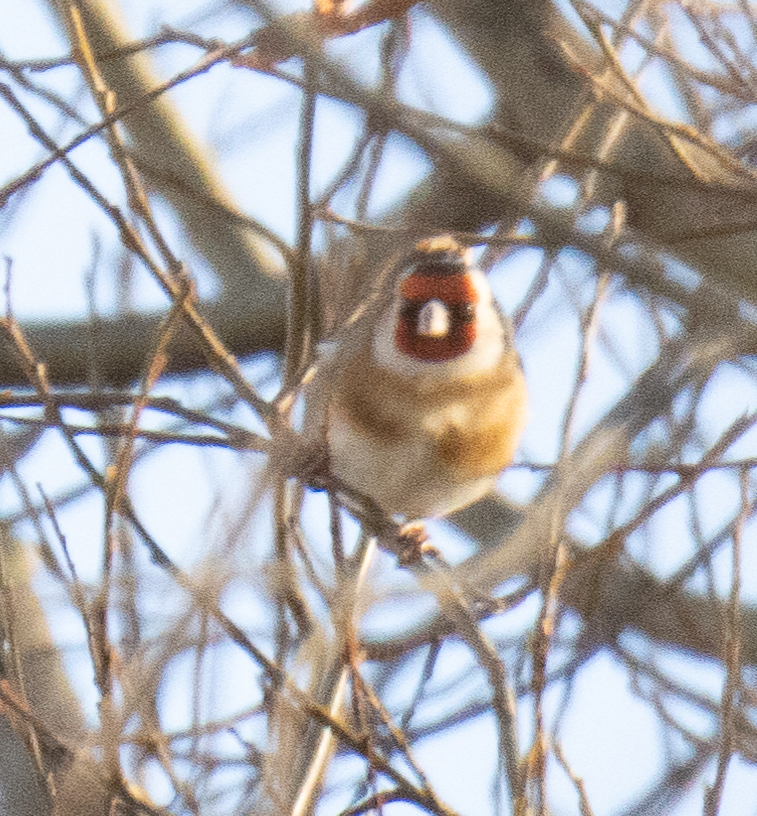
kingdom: Animalia
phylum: Chordata
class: Aves
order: Passeriformes
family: Fringillidae
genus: Carduelis
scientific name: Carduelis carduelis
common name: European goldfinch
